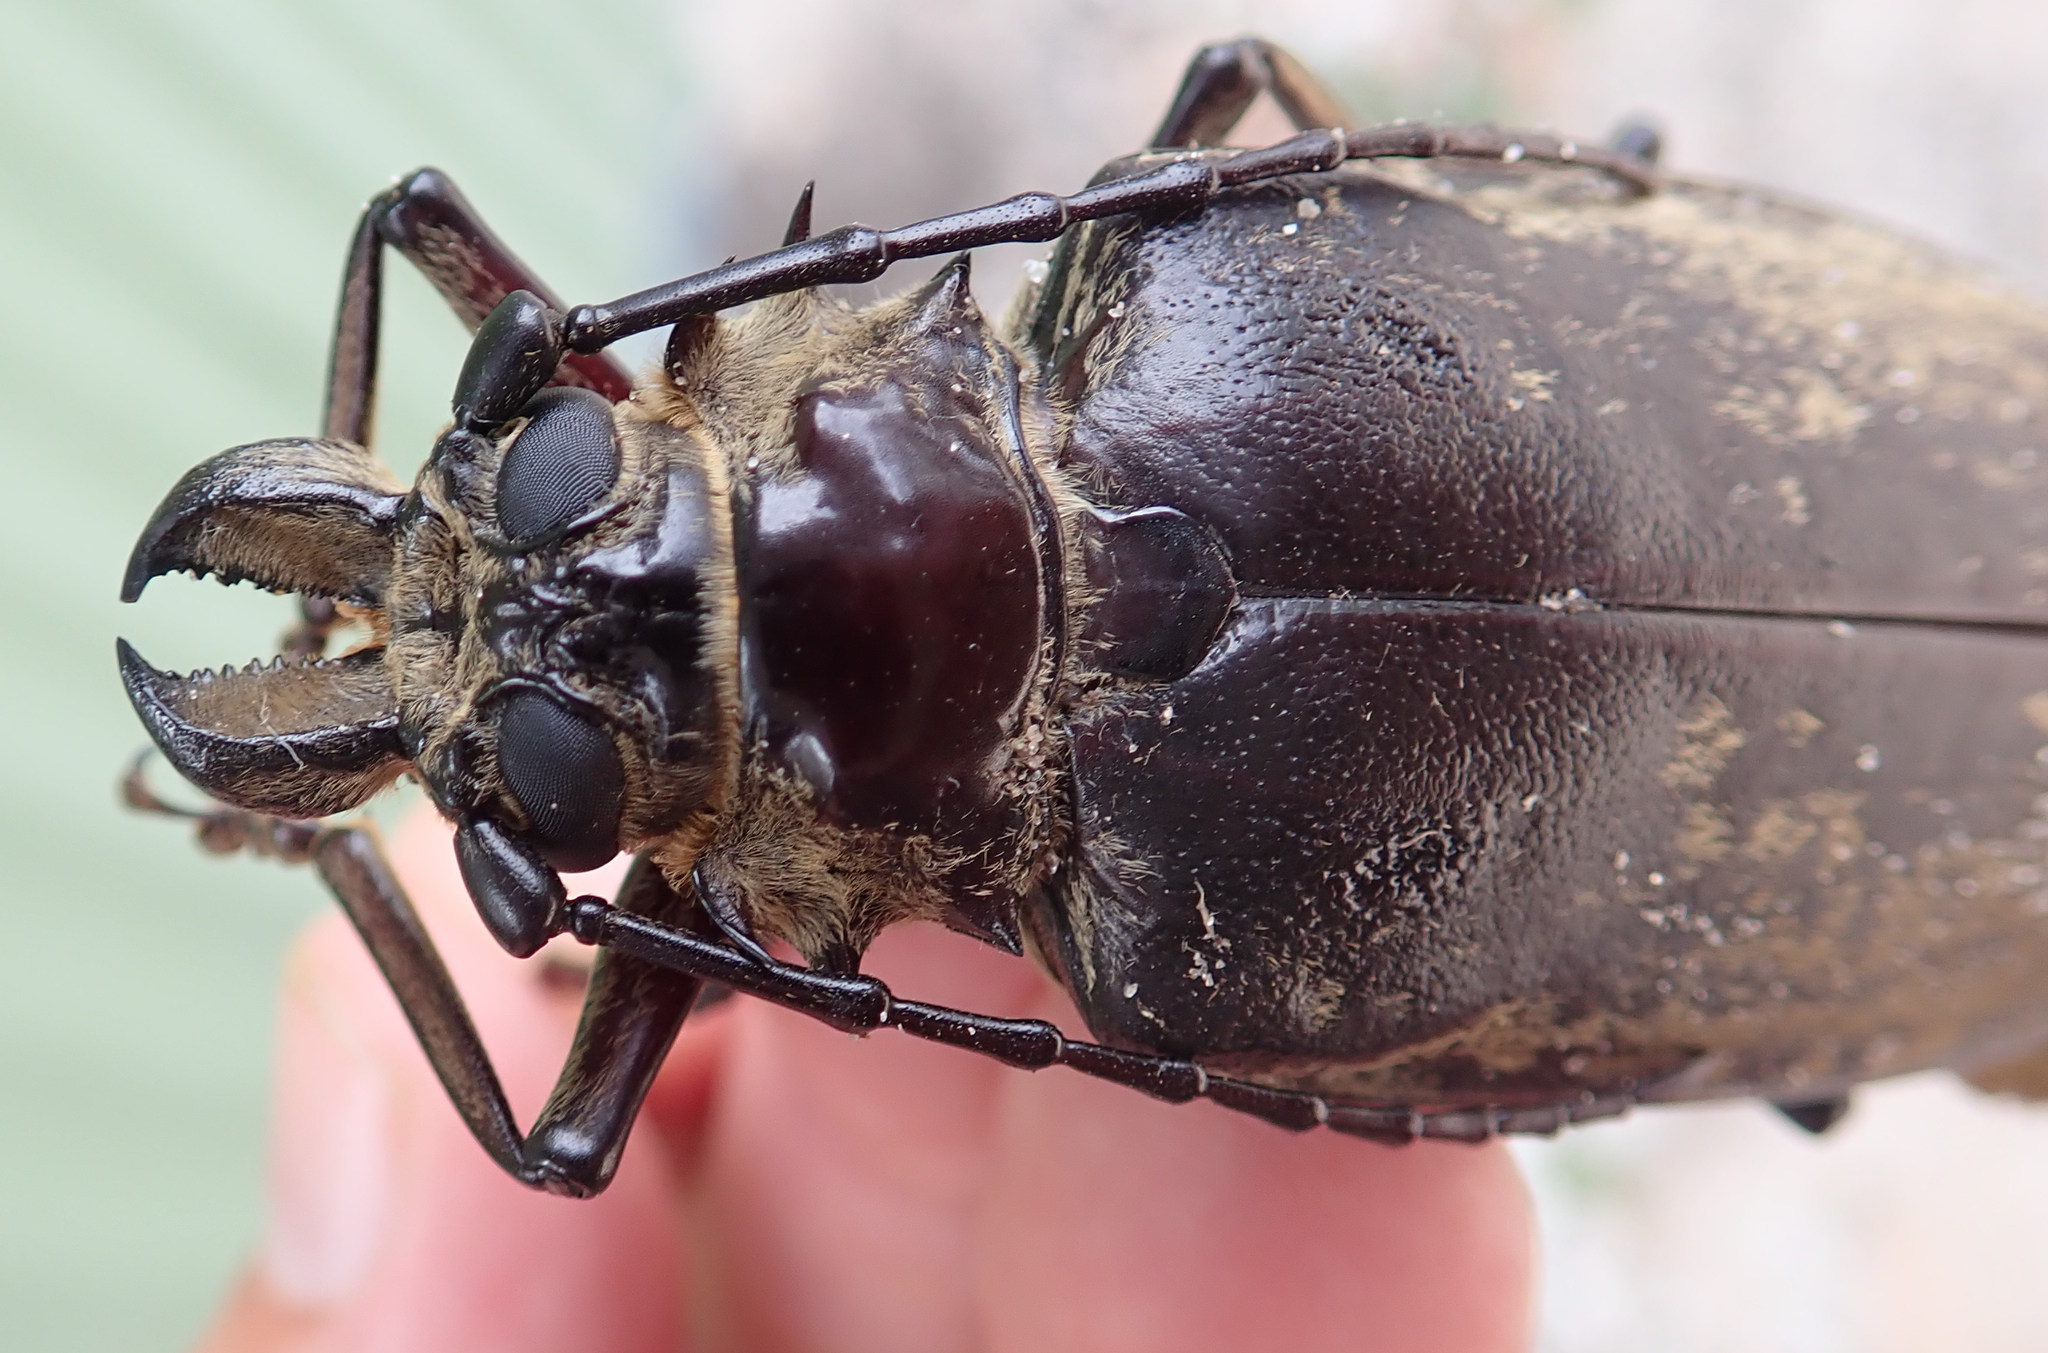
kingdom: Animalia
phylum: Arthropoda
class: Insecta
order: Coleoptera
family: Cerambycidae
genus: Tithoes
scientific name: Tithoes confinis
